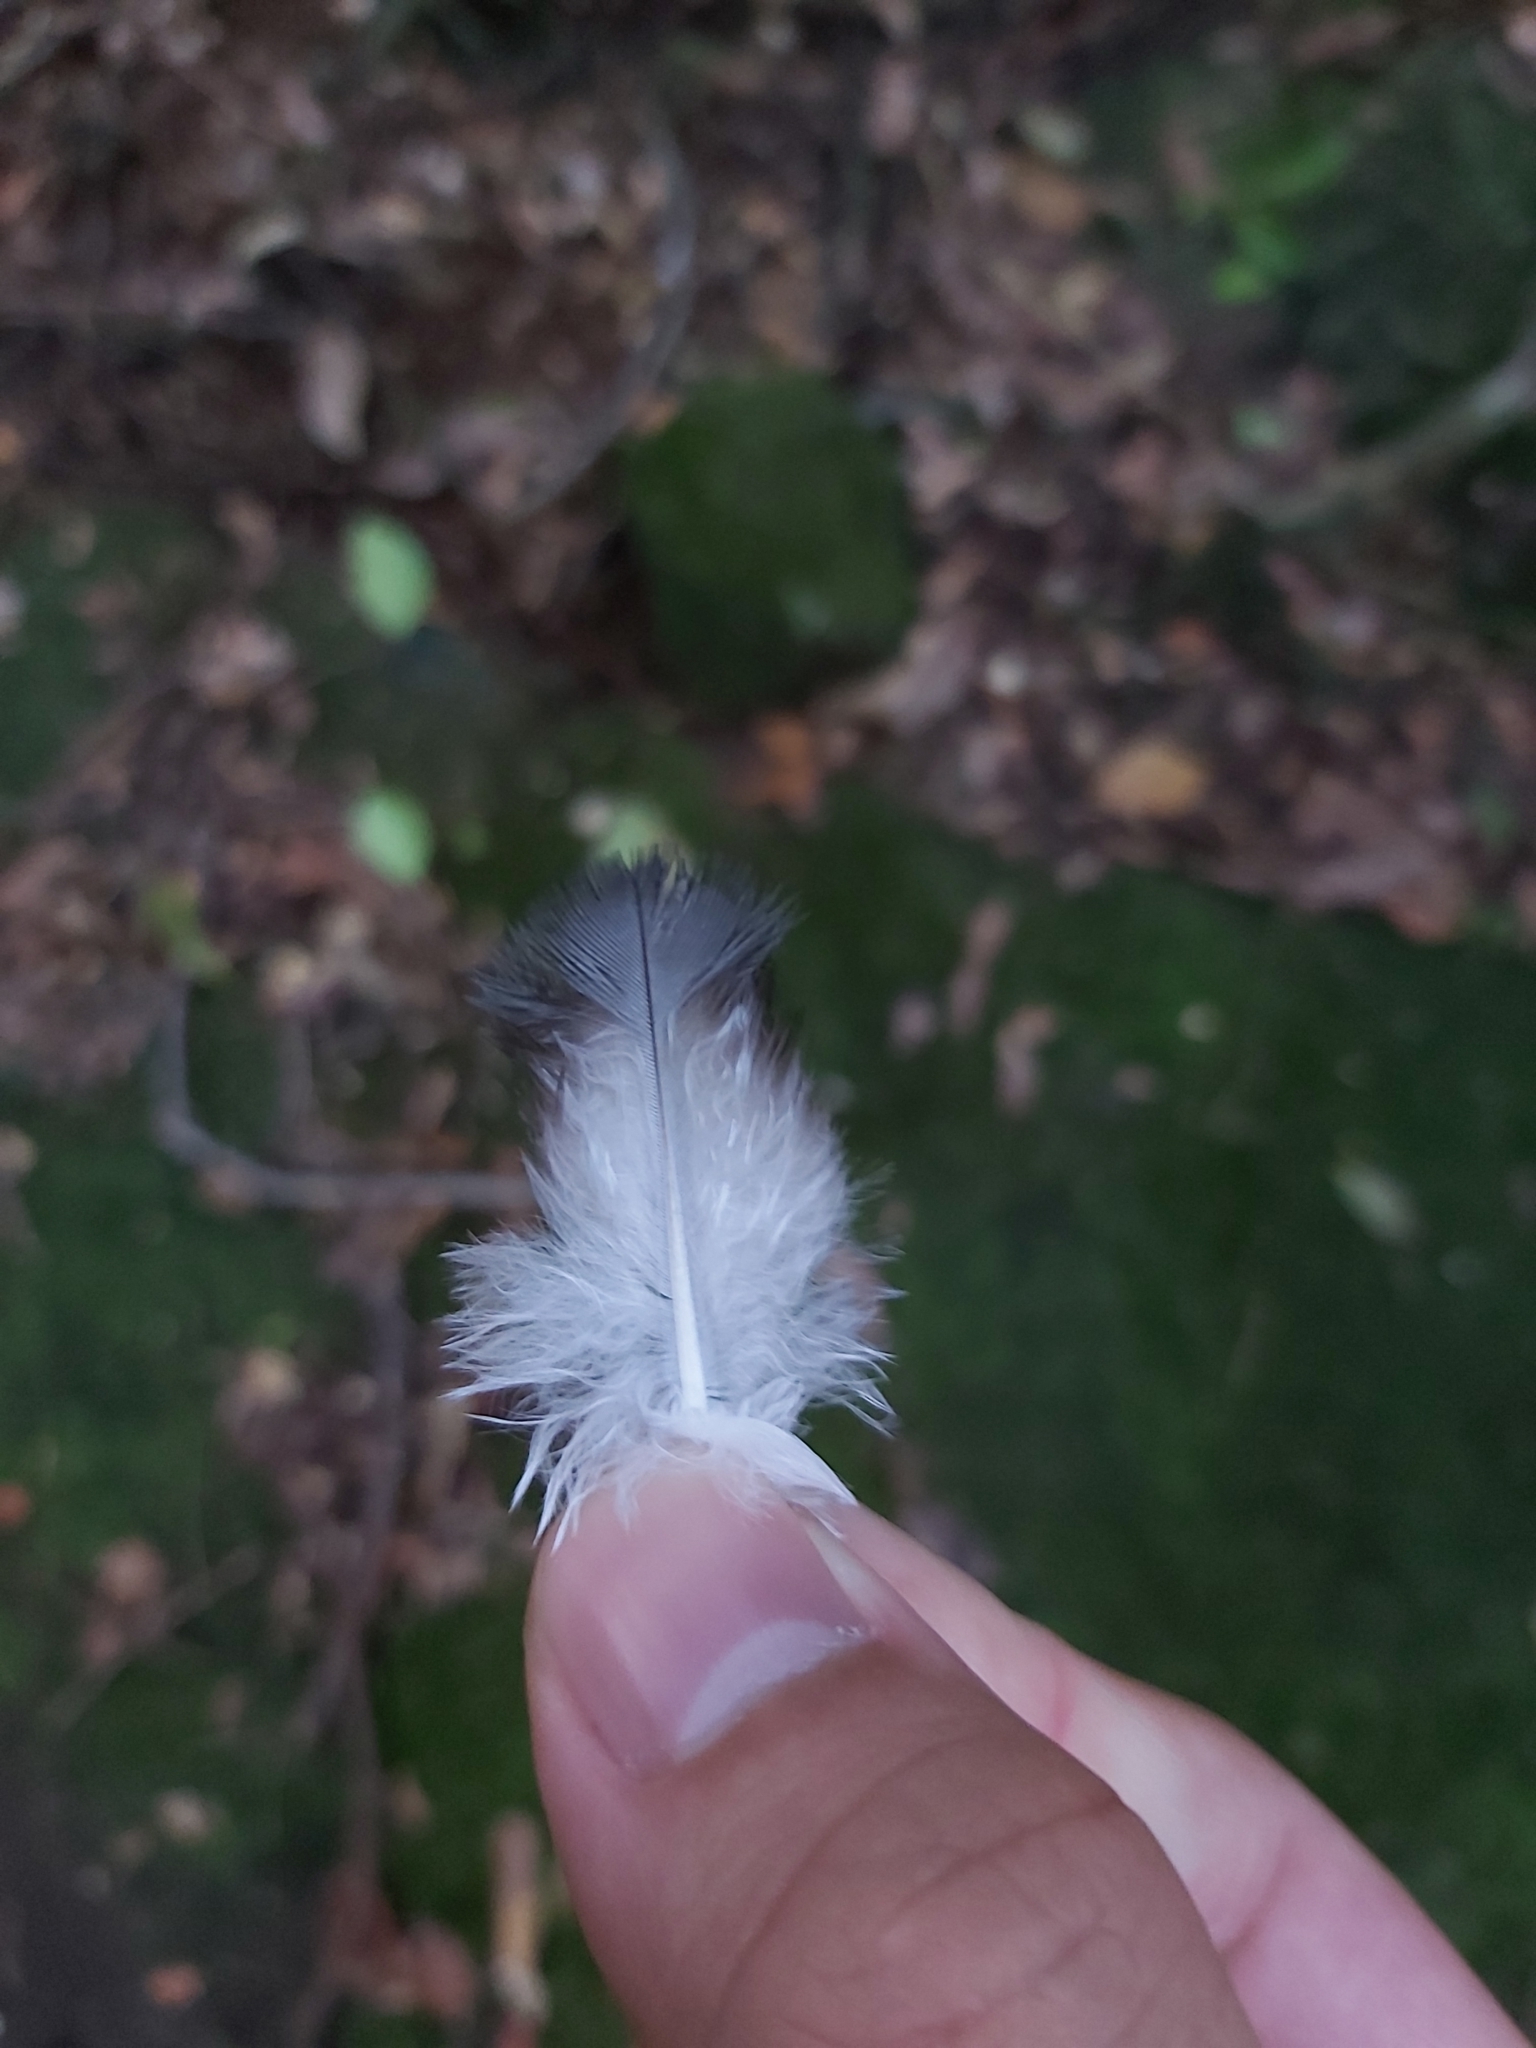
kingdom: Animalia
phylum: Chordata
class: Aves
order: Columbiformes
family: Columbidae
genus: Leucosarcia
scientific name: Leucosarcia melanoleuca
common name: Wonga pigeon
